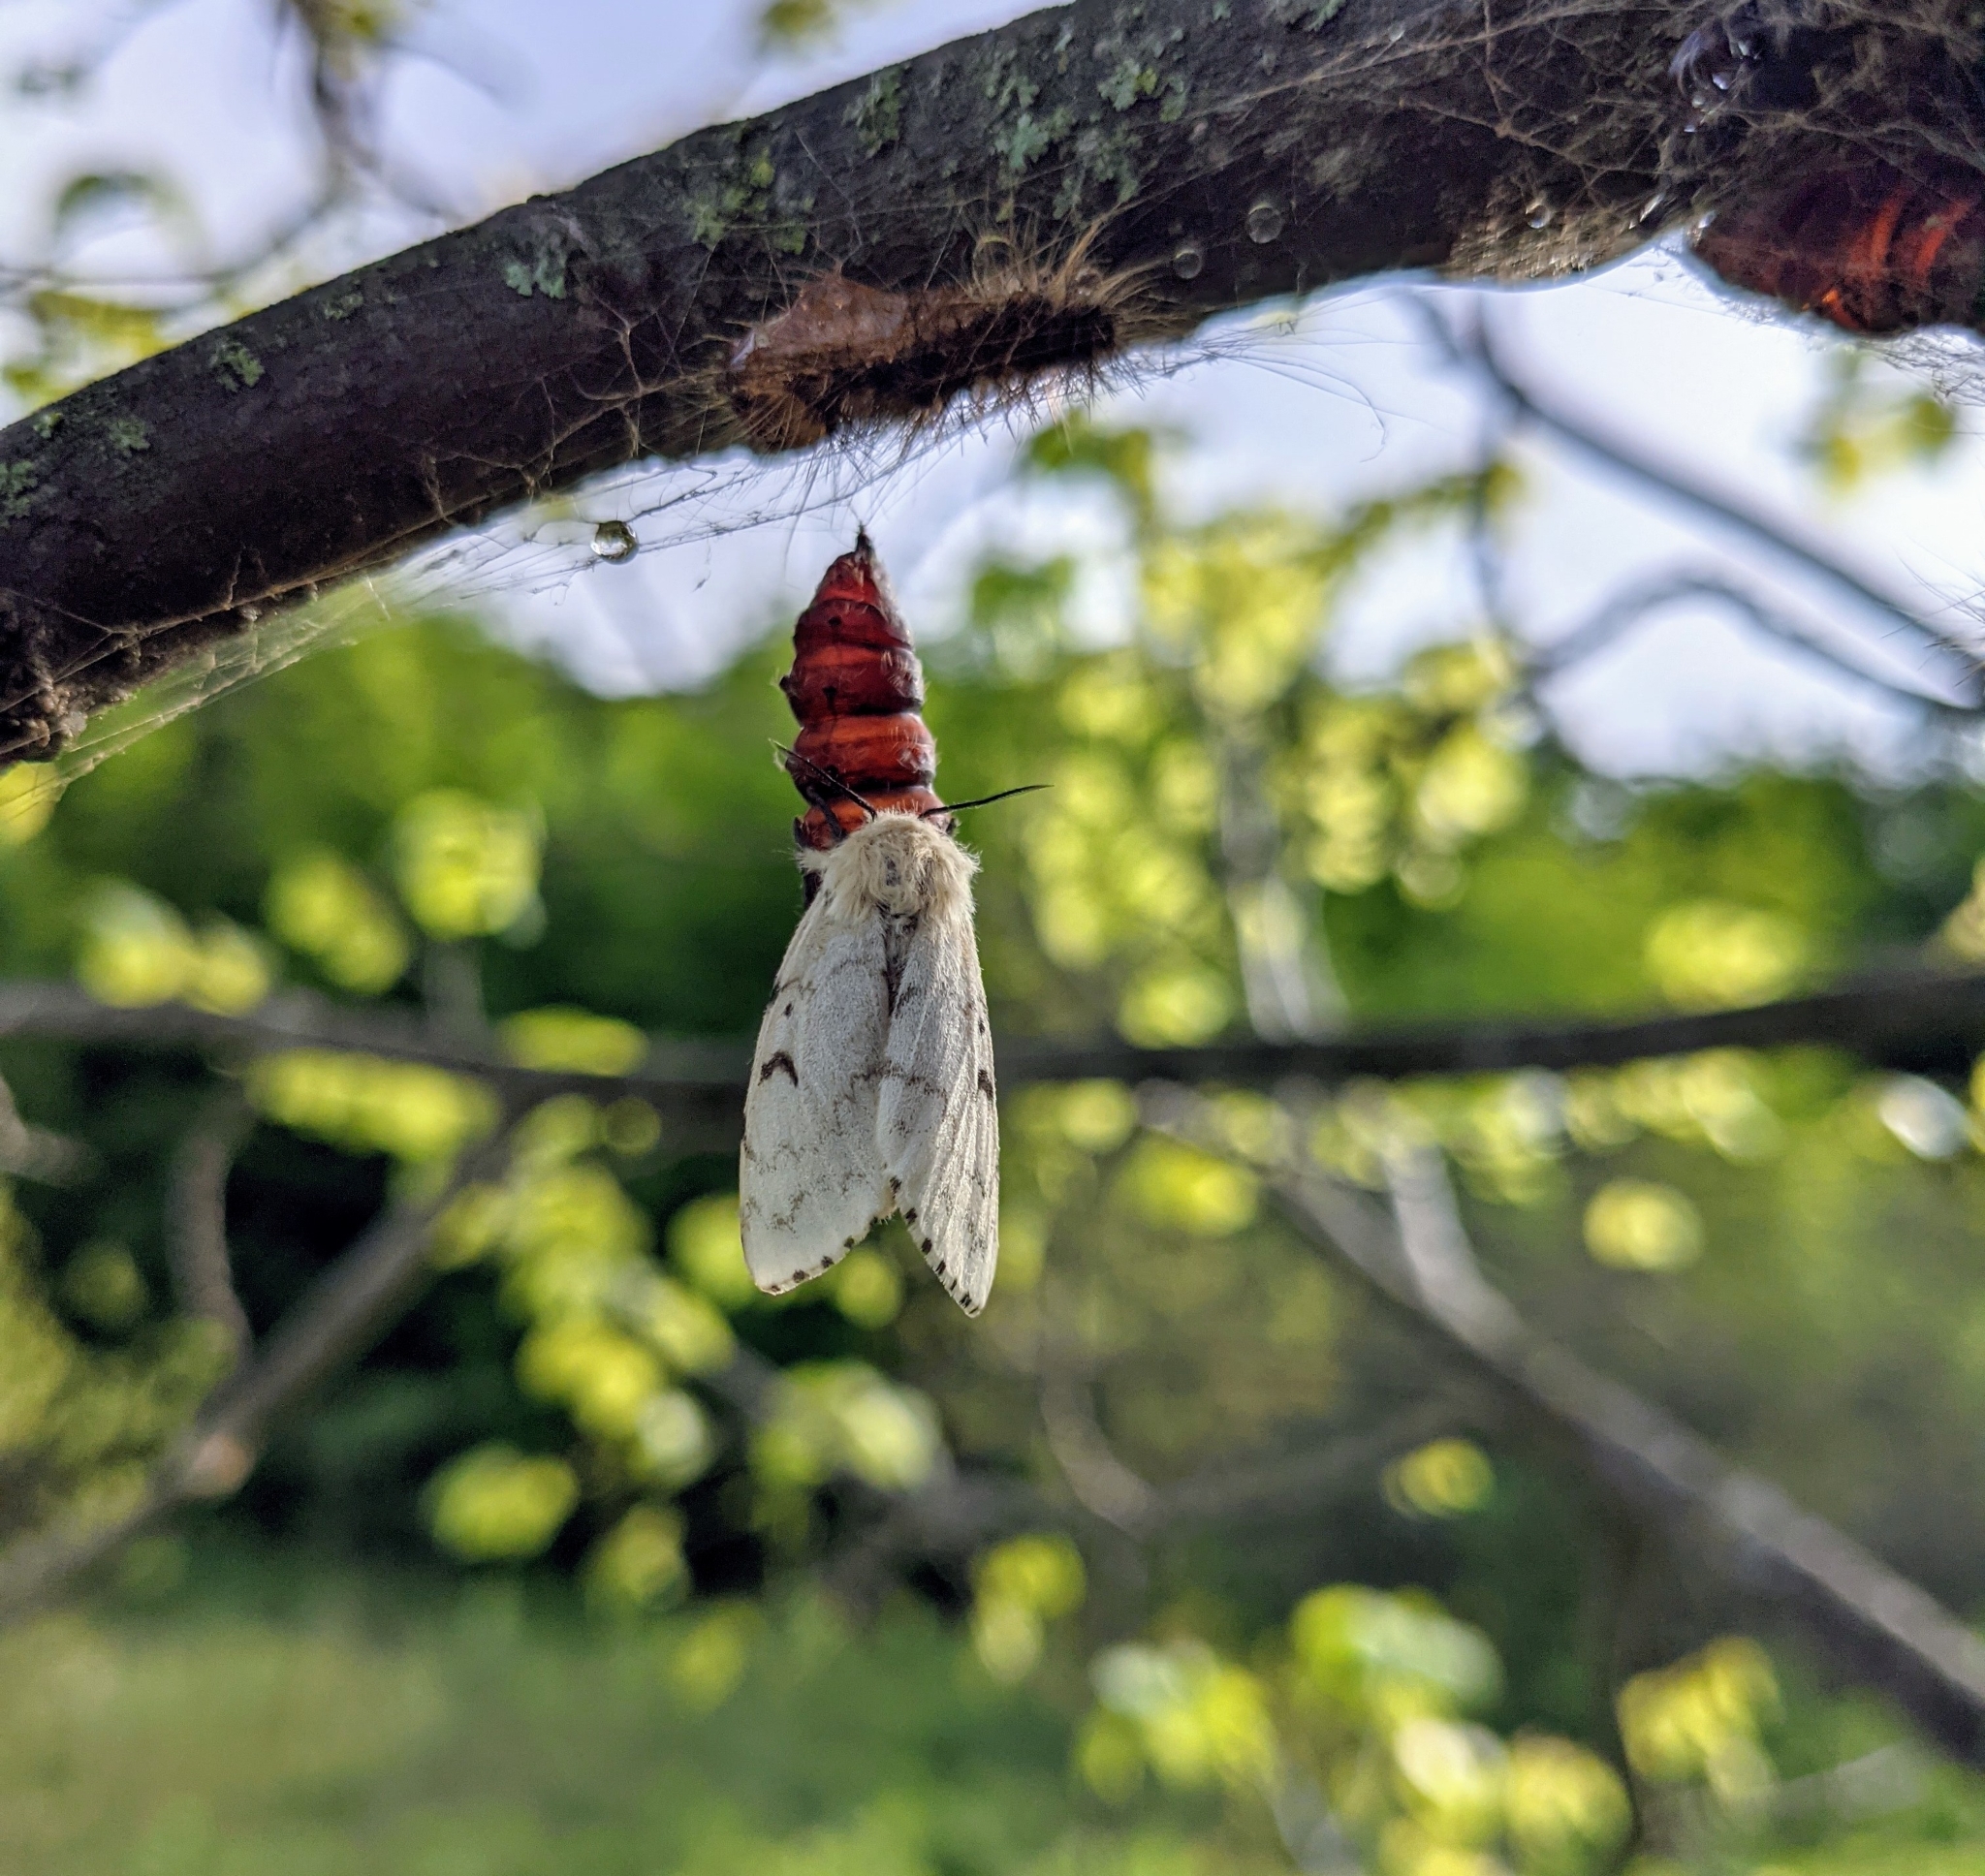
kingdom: Animalia
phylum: Arthropoda
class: Insecta
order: Lepidoptera
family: Erebidae
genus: Lymantria
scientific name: Lymantria dispar
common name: Gypsy moth
